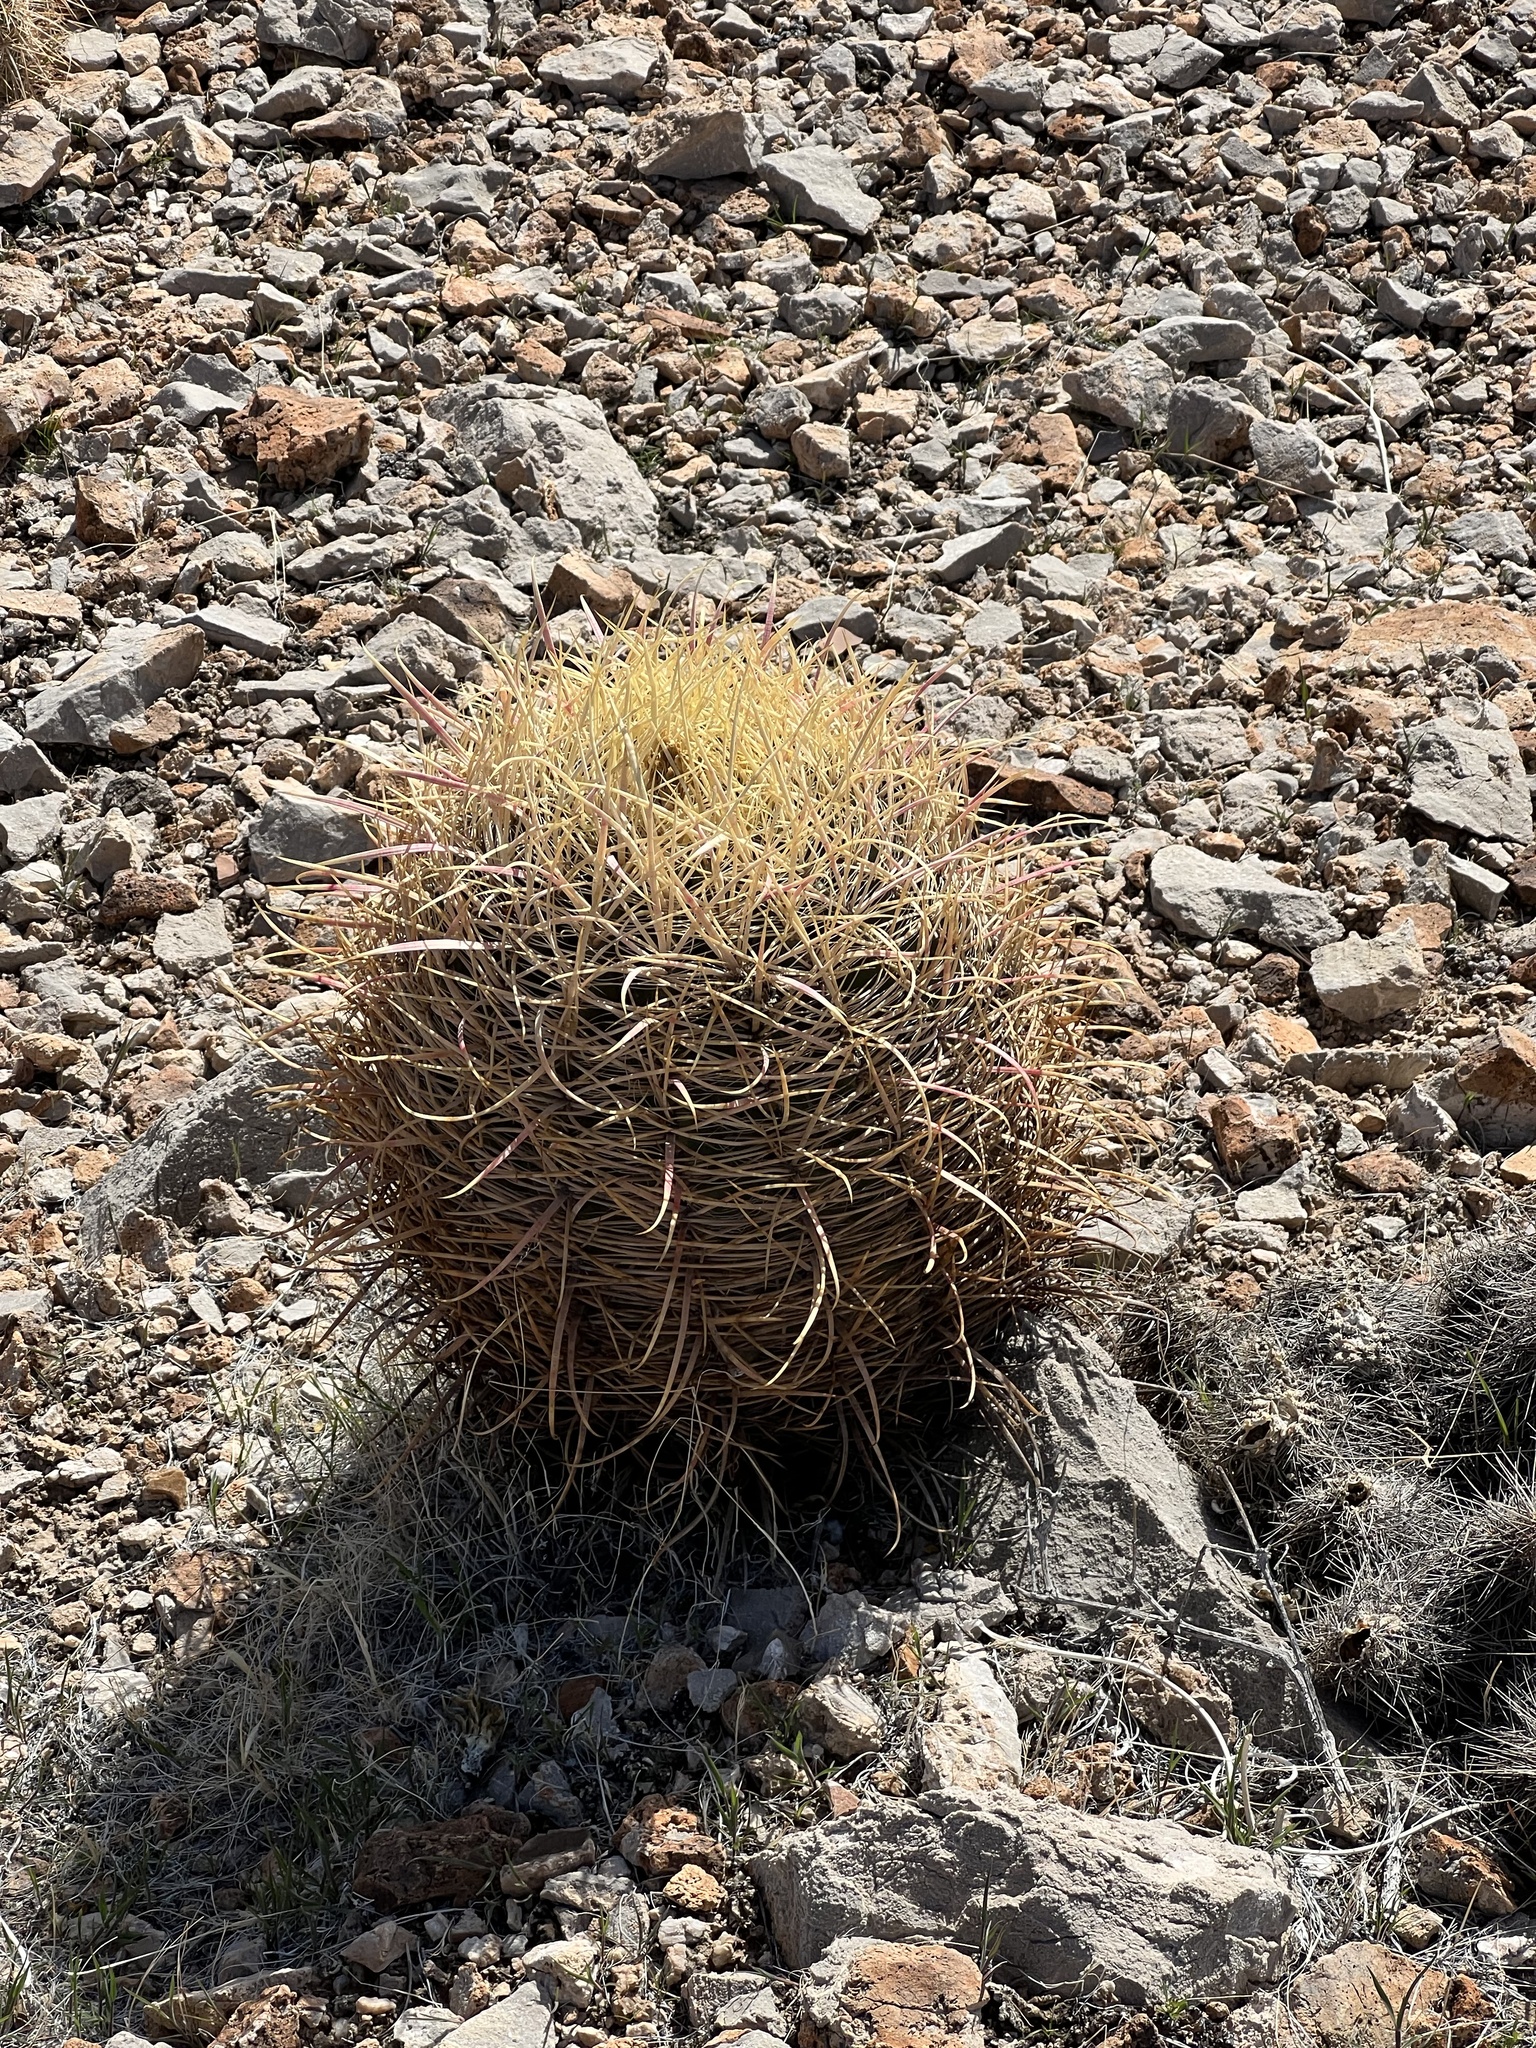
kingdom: Plantae
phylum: Tracheophyta
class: Magnoliopsida
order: Caryophyllales
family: Cactaceae
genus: Ferocactus
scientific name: Ferocactus cylindraceus
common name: California barrel cactus
